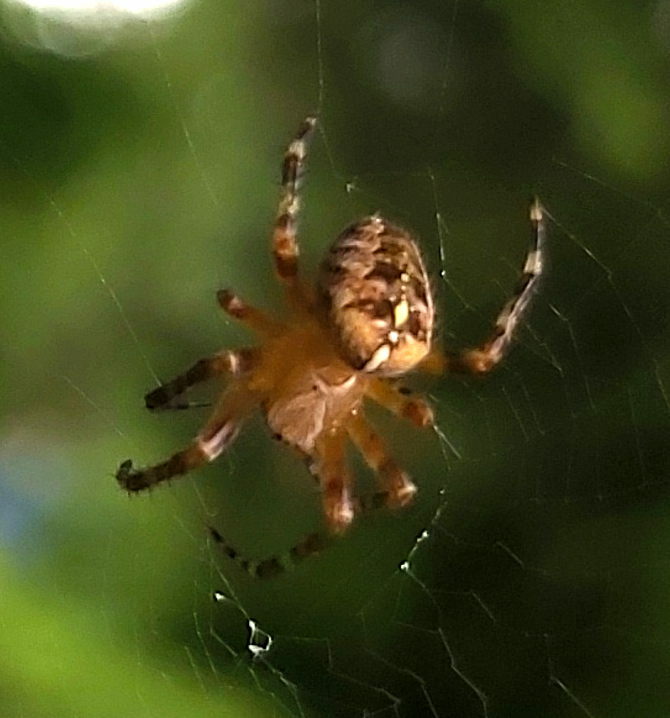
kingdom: Animalia
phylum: Arthropoda
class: Arachnida
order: Araneae
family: Araneidae
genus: Araneus
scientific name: Araneus diadematus
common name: Cross orbweaver
